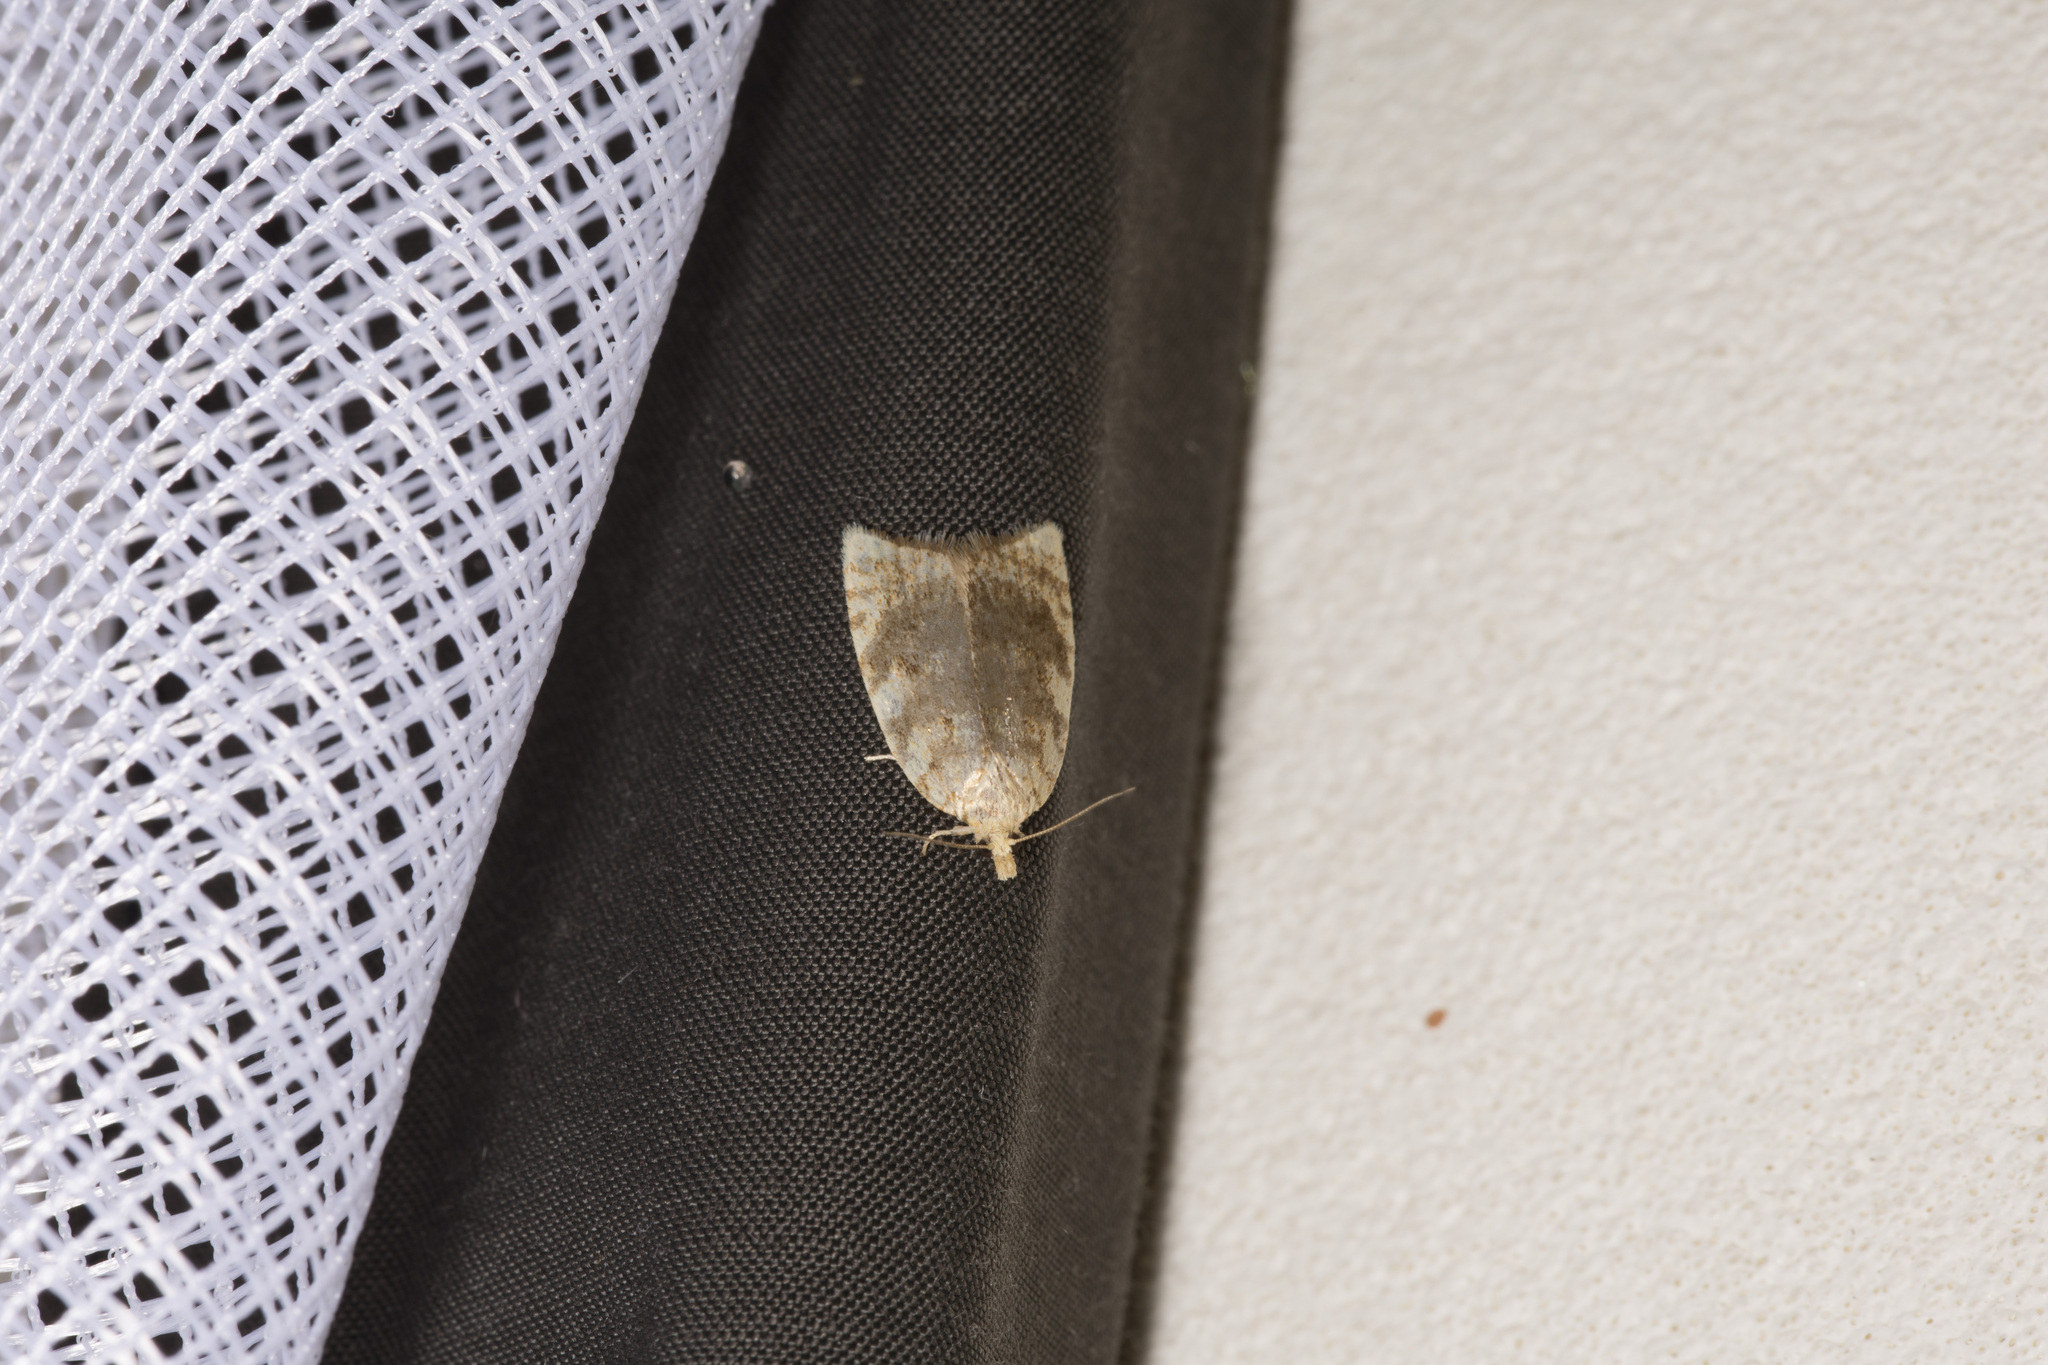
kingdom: Animalia
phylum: Arthropoda
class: Insecta
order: Lepidoptera
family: Tortricidae
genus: Aleimma
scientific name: Aleimma loeflingiana
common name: Yellow oak button
